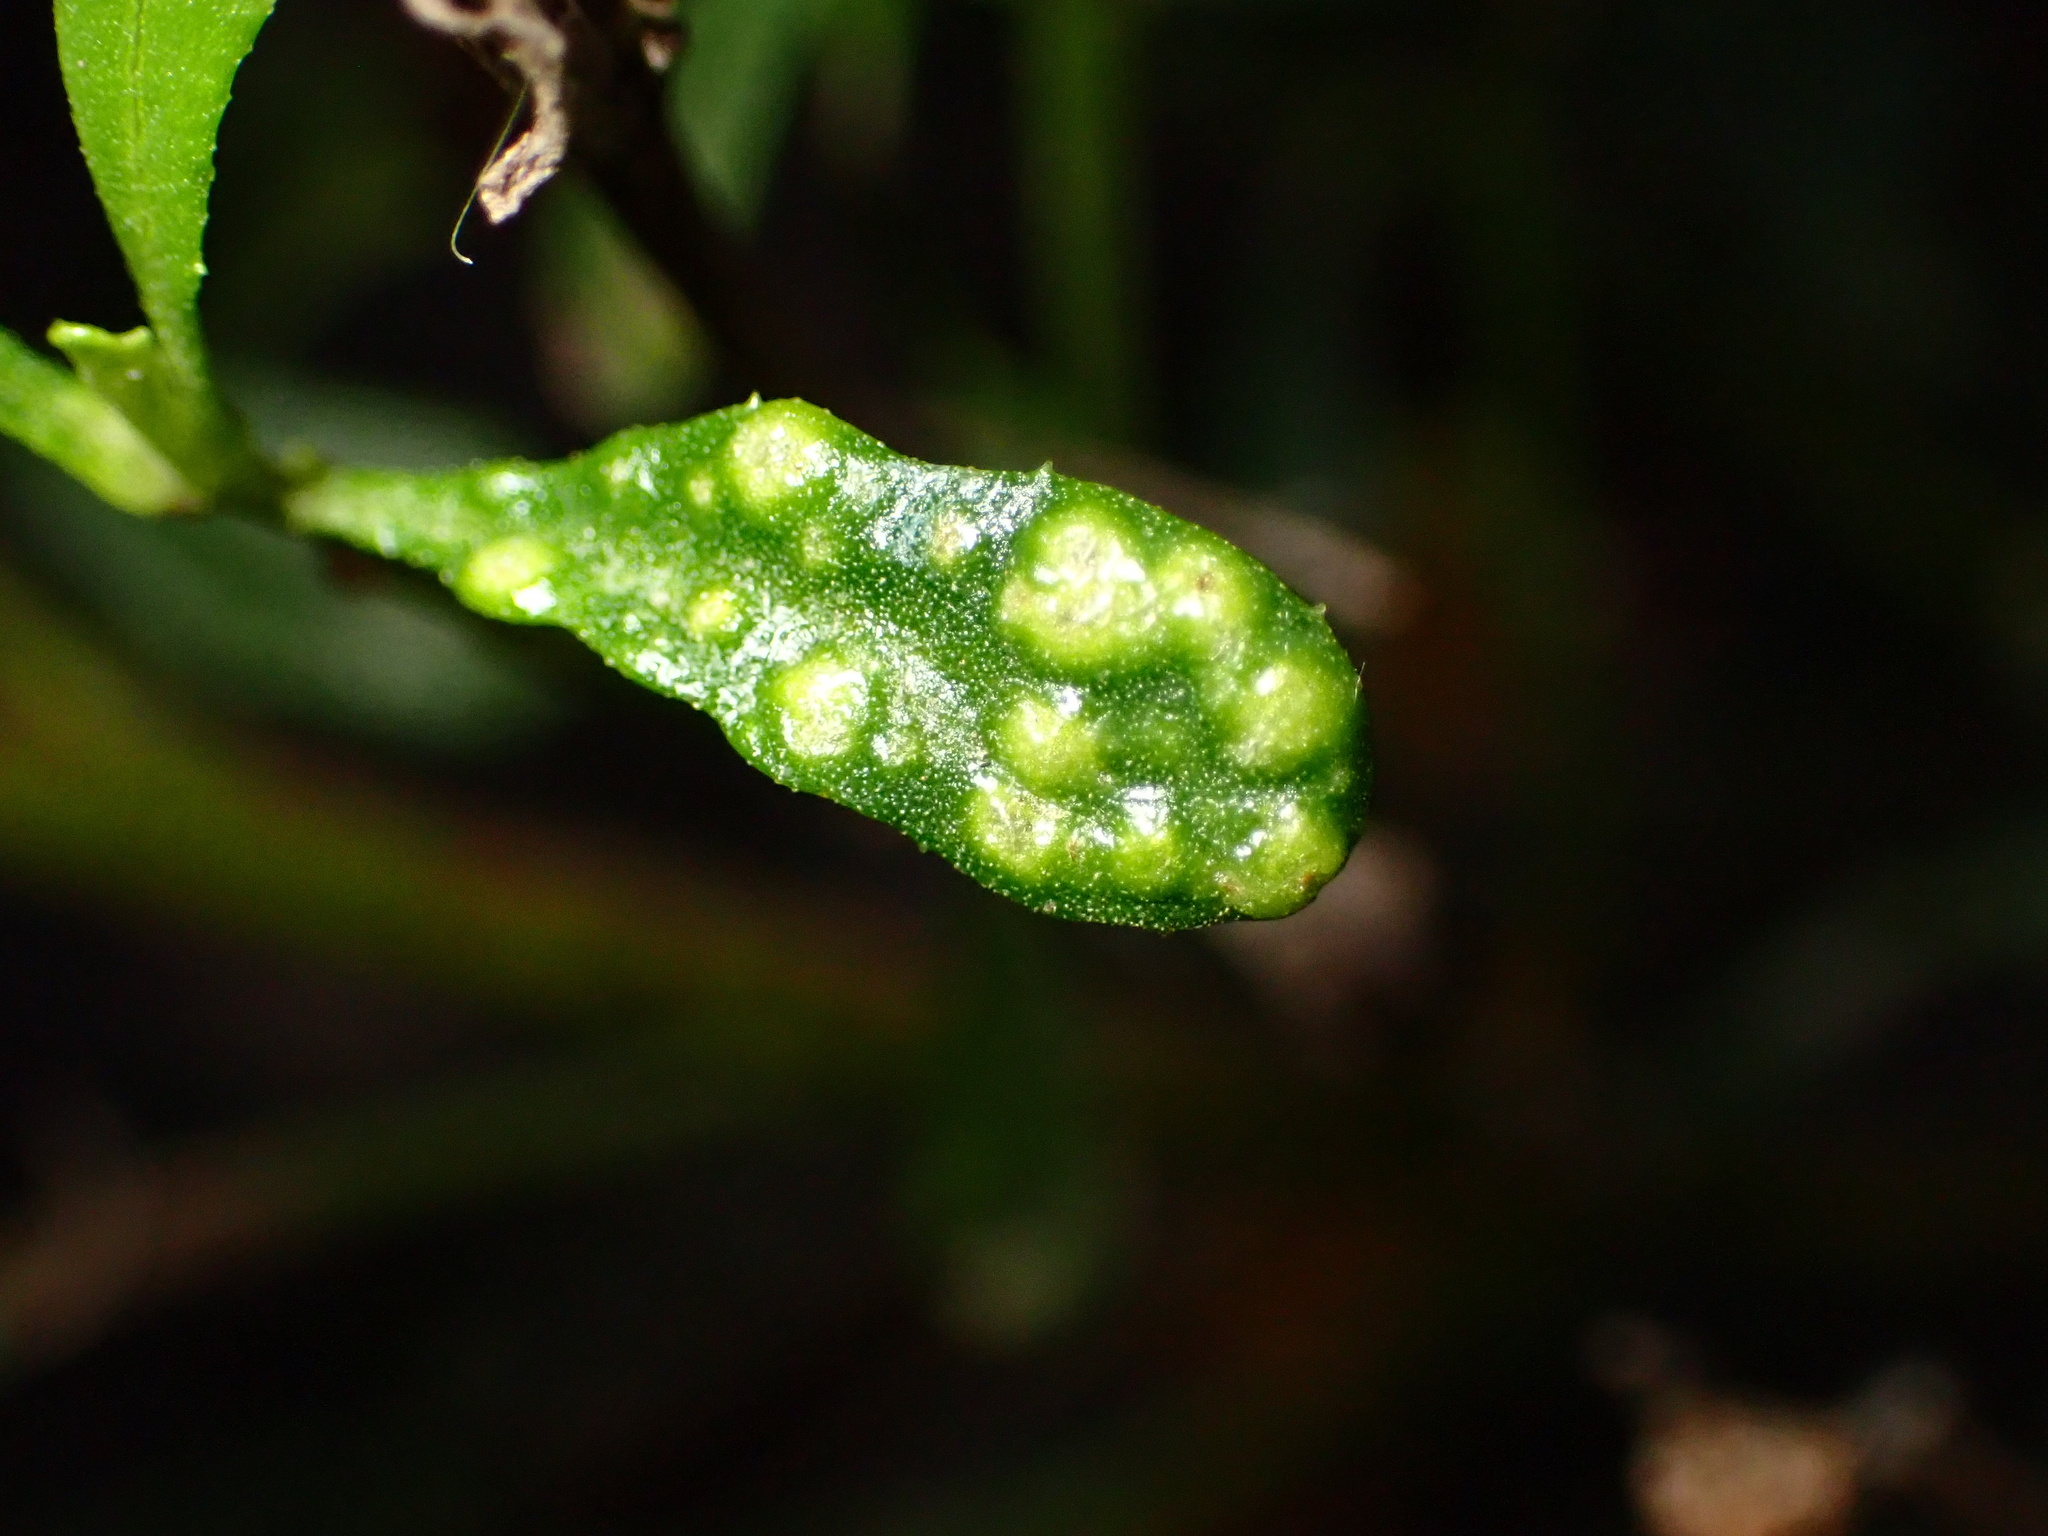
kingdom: Animalia
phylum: Arthropoda
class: Arachnida
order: Trombidiformes
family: Eriophyidae
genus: Aceria
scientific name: Aceria
